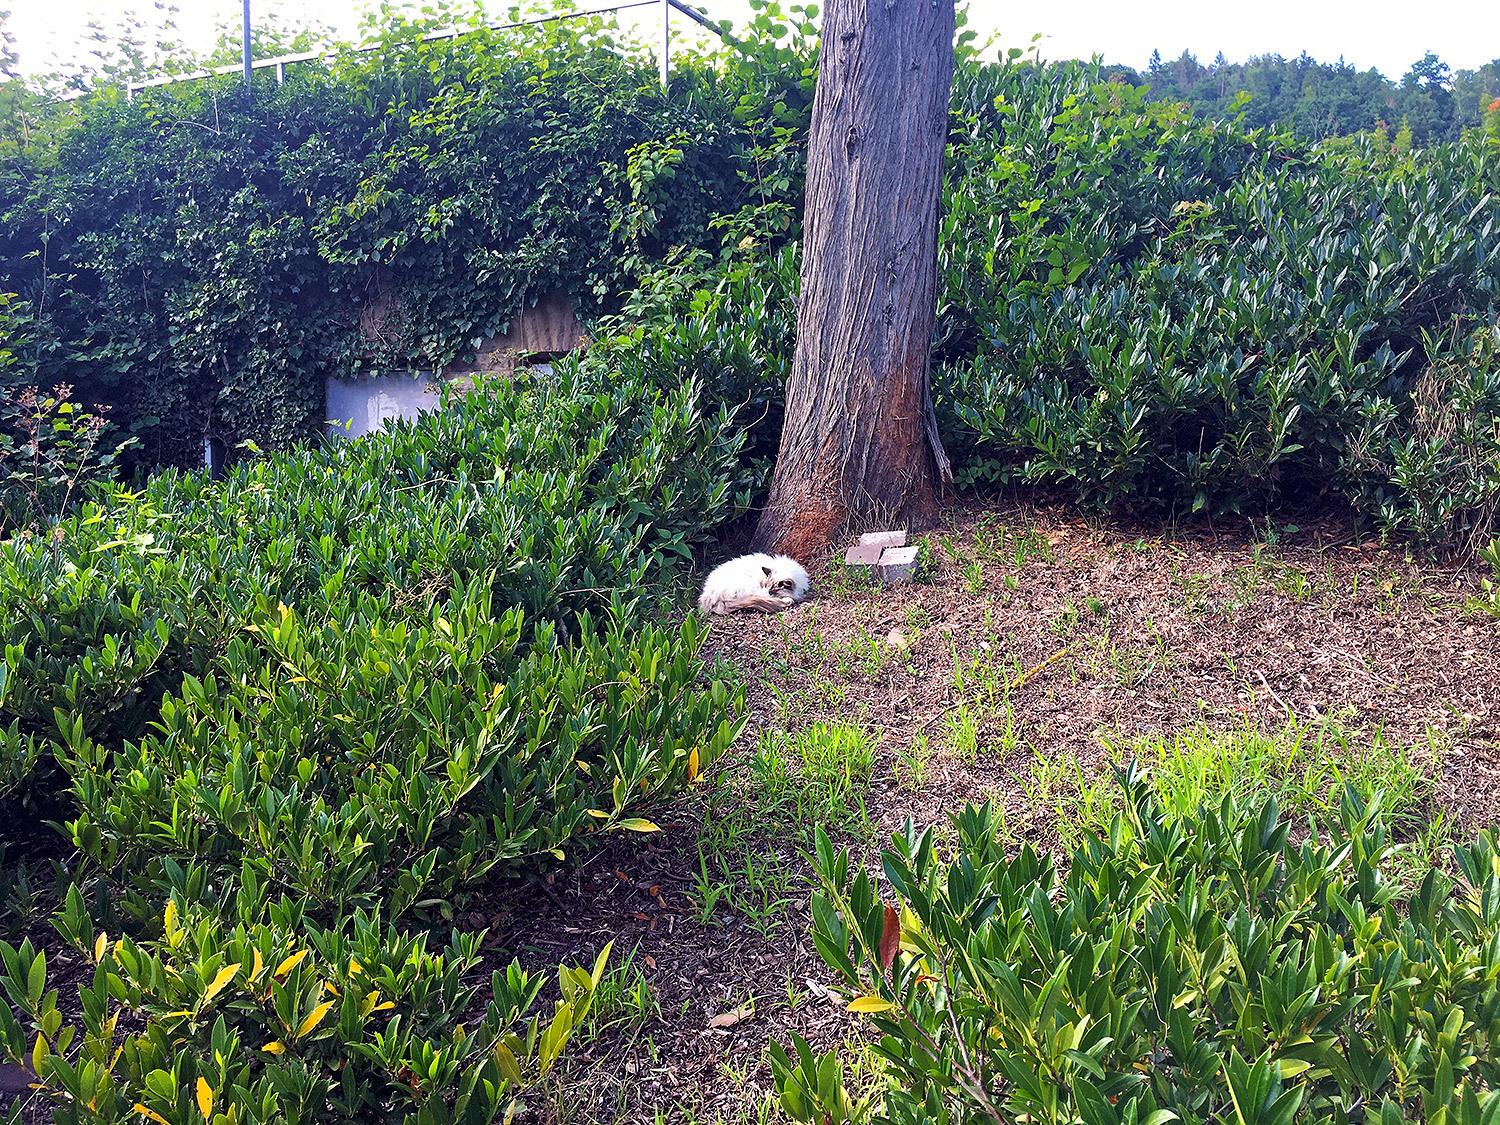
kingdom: Animalia
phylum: Chordata
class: Mammalia
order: Carnivora
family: Felidae
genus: Felis
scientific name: Felis catus
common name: Domestic cat
